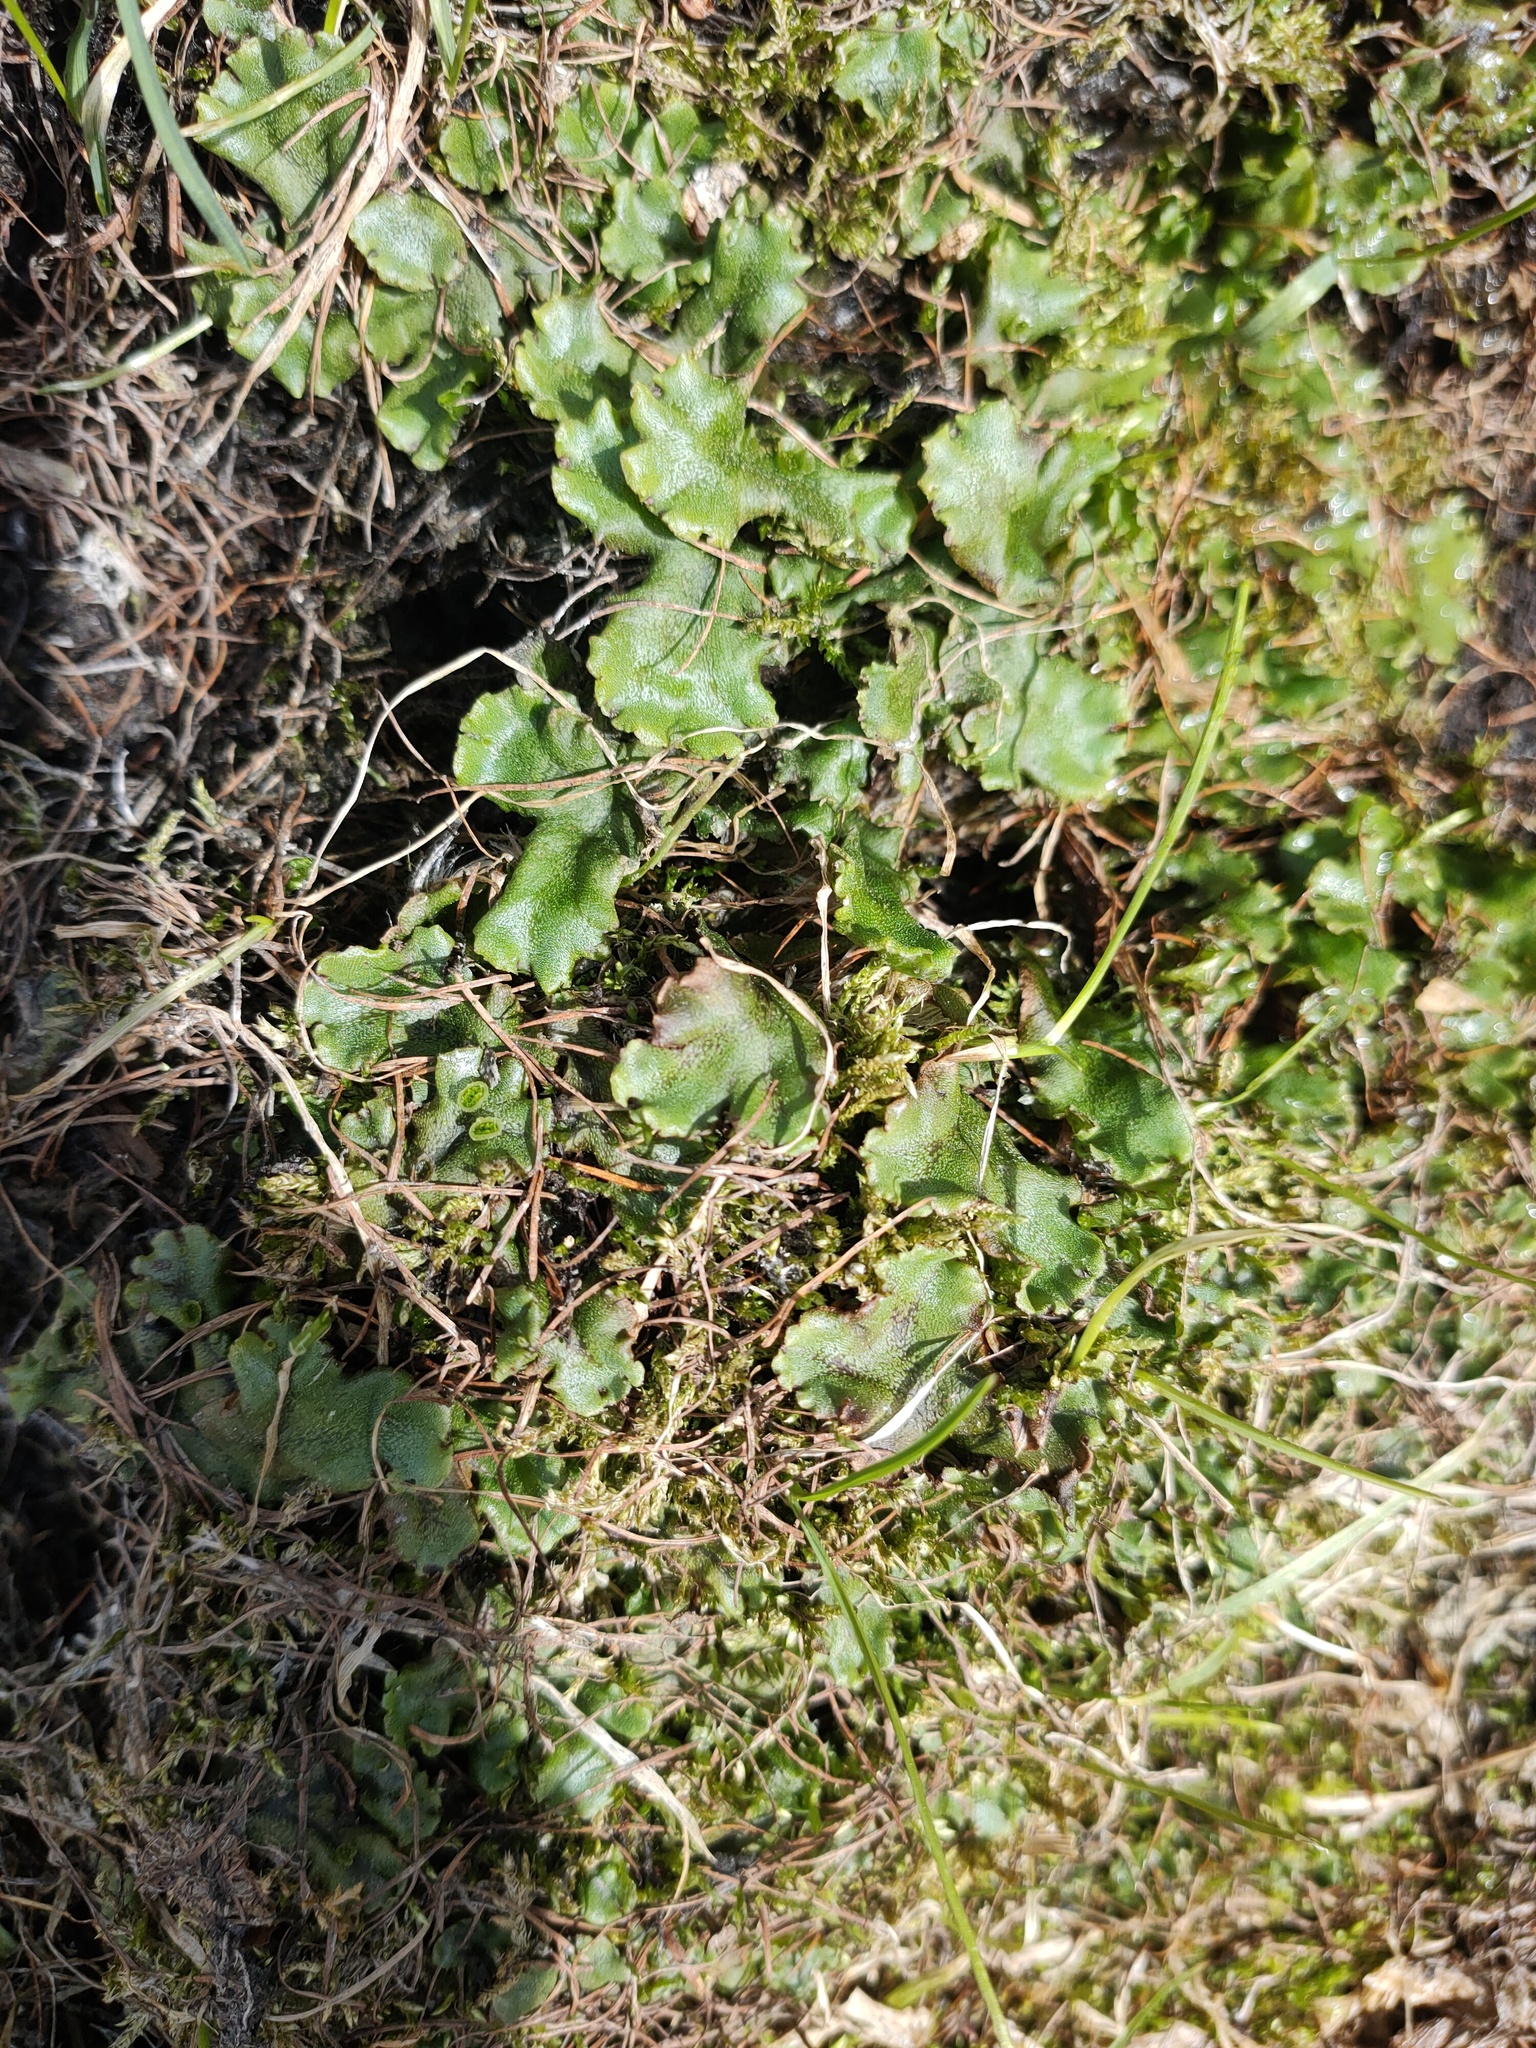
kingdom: Plantae
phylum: Marchantiophyta
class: Marchantiopsida
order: Marchantiales
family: Marchantiaceae
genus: Marchantia
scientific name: Marchantia polymorpha
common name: Common liverwort
